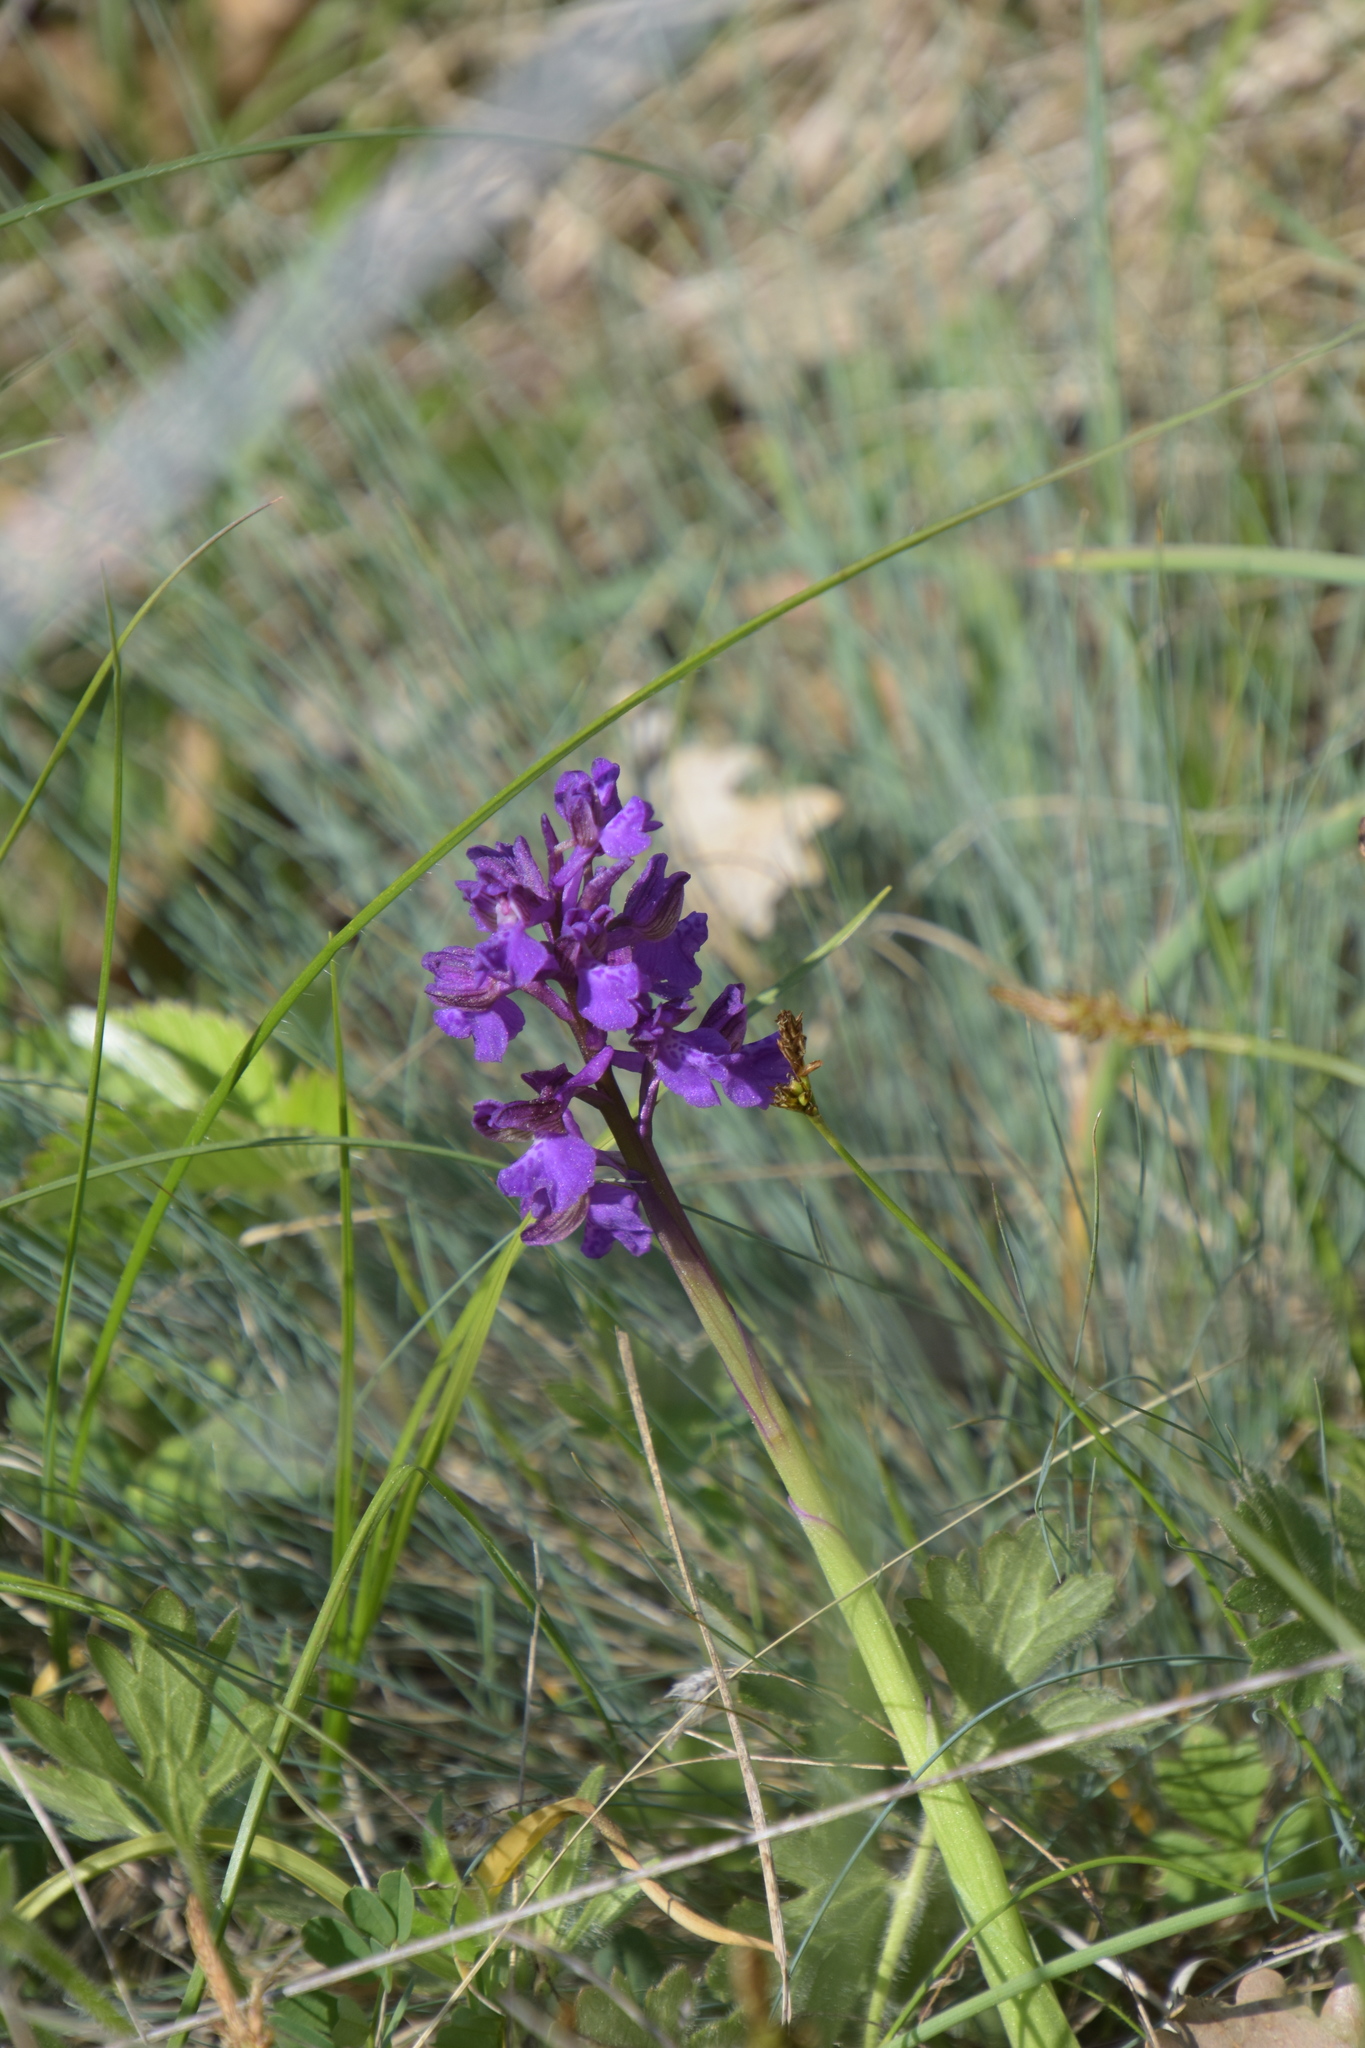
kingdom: Plantae
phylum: Tracheophyta
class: Liliopsida
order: Asparagales
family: Orchidaceae
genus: Anacamptis
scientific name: Anacamptis morio
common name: Green-winged orchid
